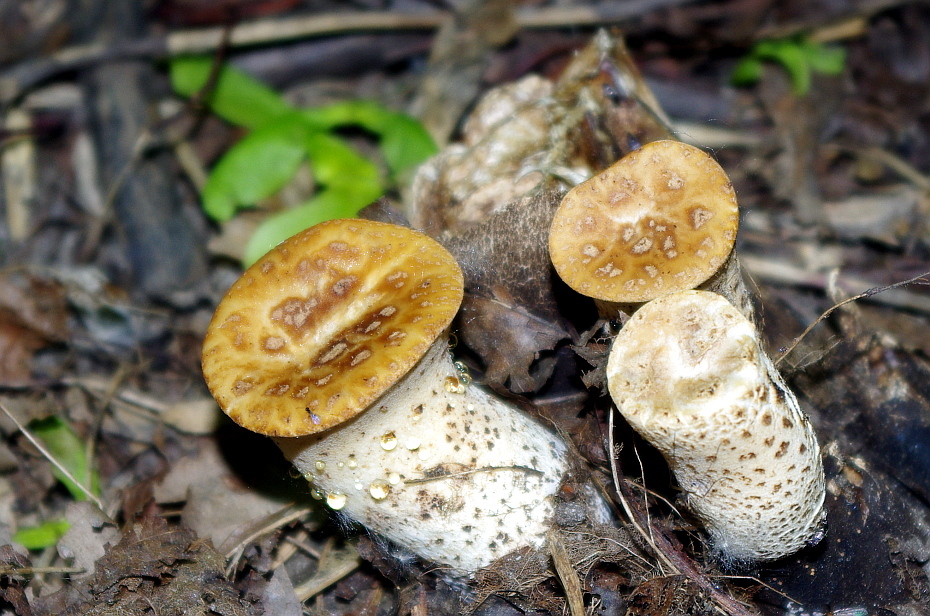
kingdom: Fungi
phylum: Basidiomycota
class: Agaricomycetes
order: Polyporales
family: Polyporaceae
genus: Cerioporus
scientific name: Cerioporus squamosus
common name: Dryad's saddle
